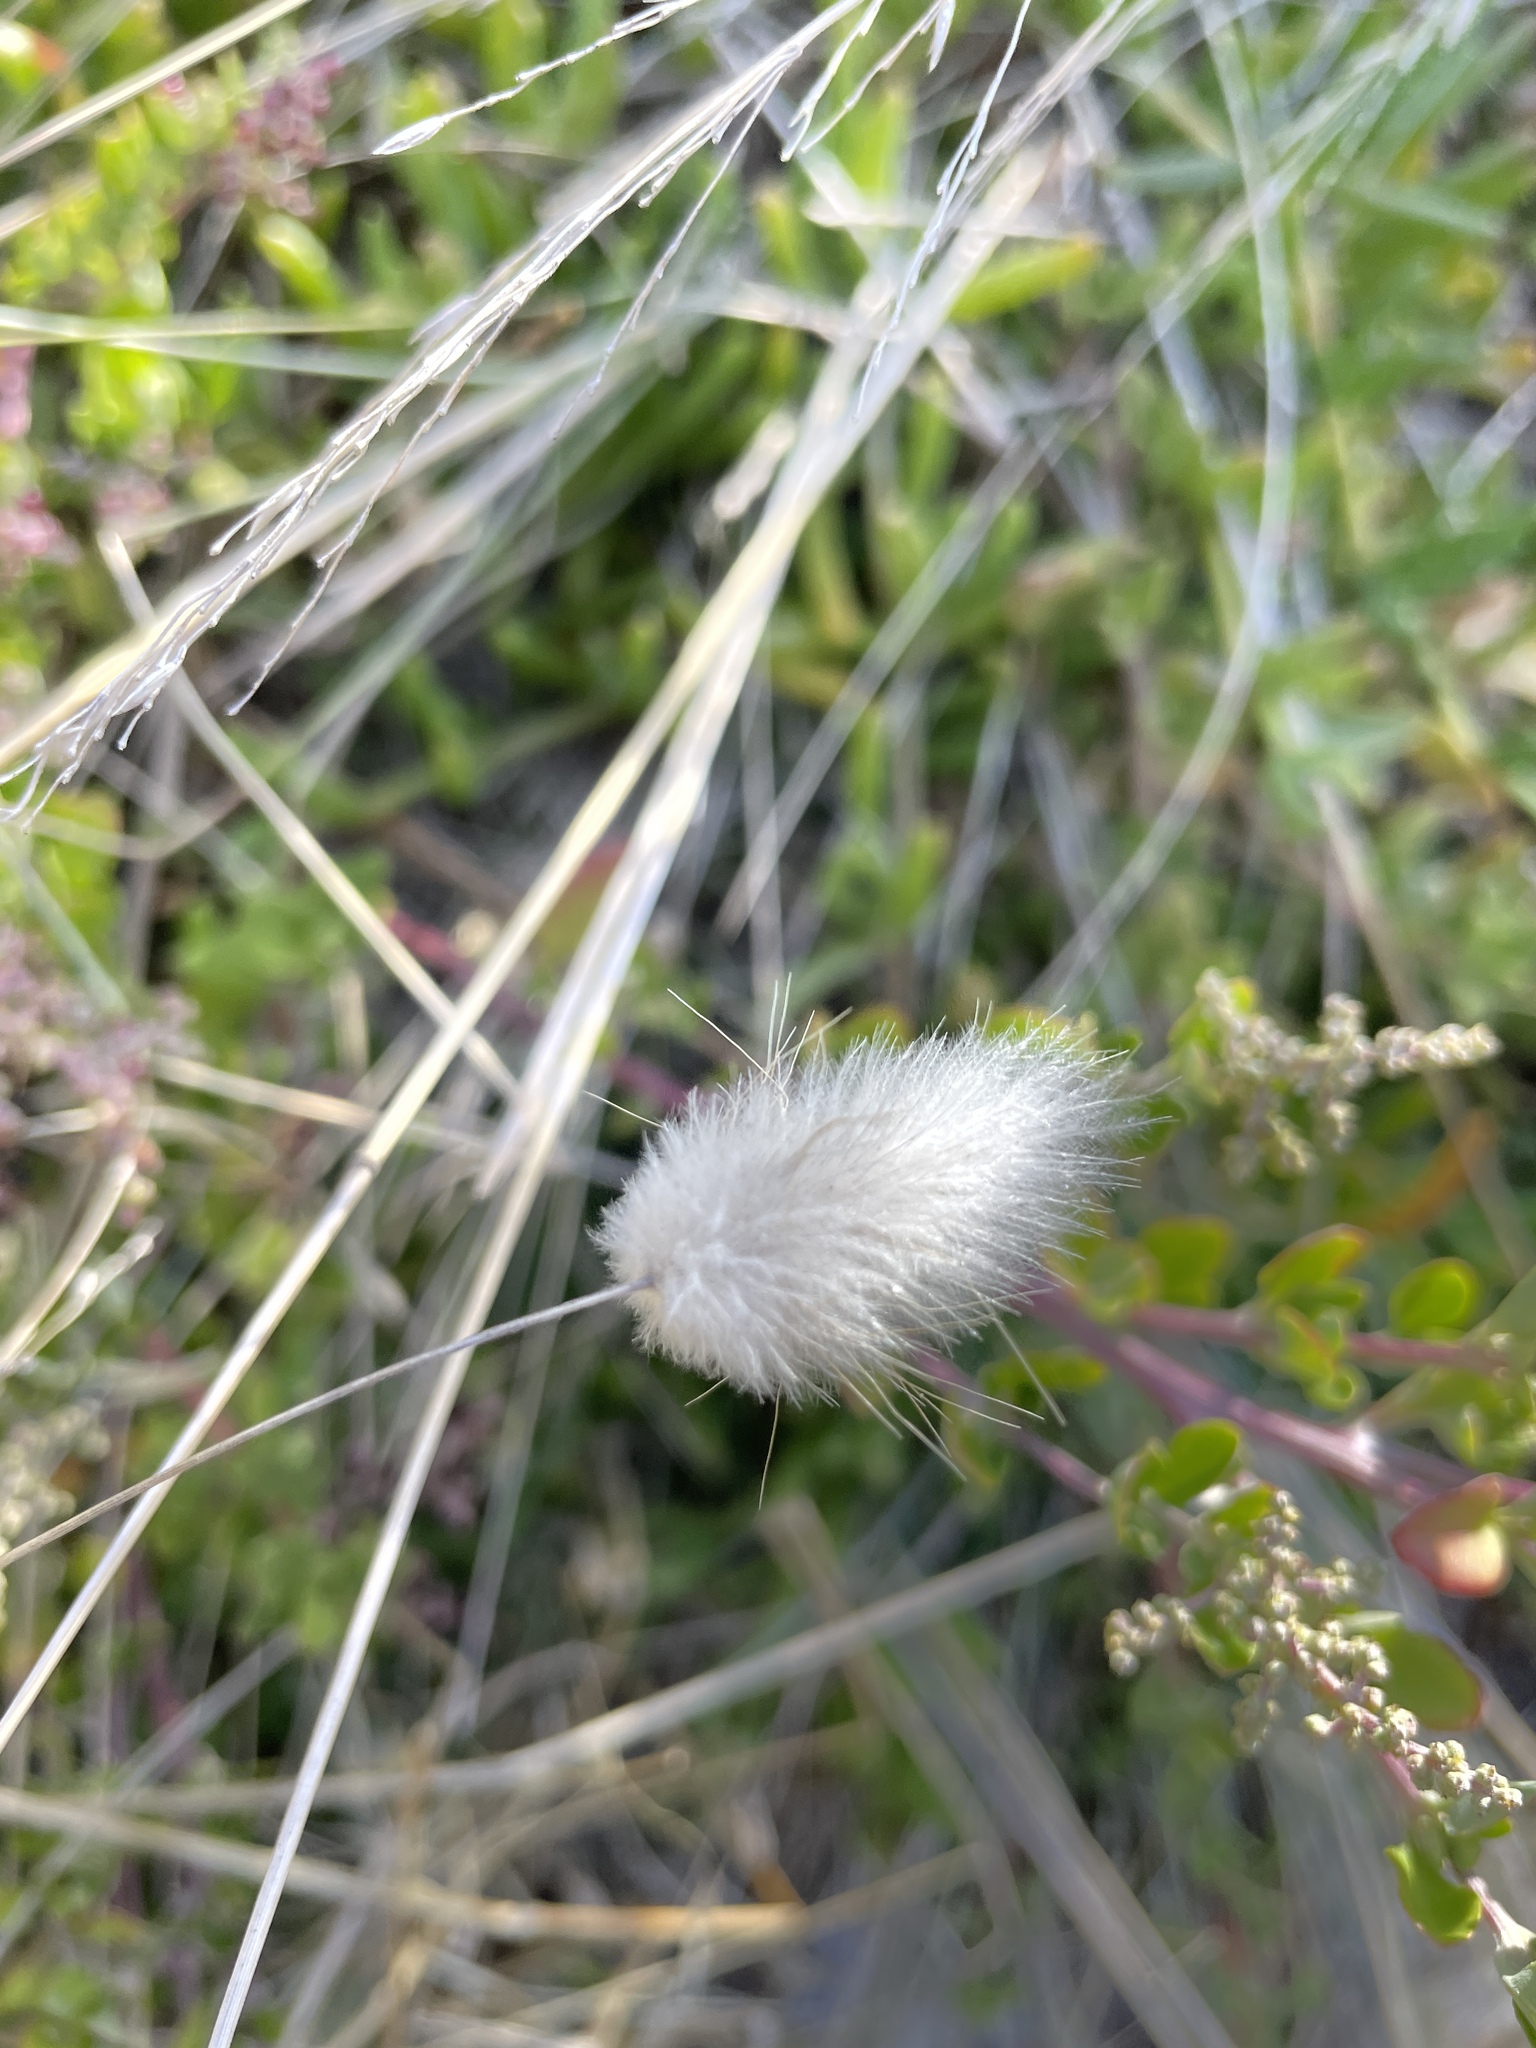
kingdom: Plantae
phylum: Tracheophyta
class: Liliopsida
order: Poales
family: Poaceae
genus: Lagurus
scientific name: Lagurus ovatus
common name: Hare's-tail
